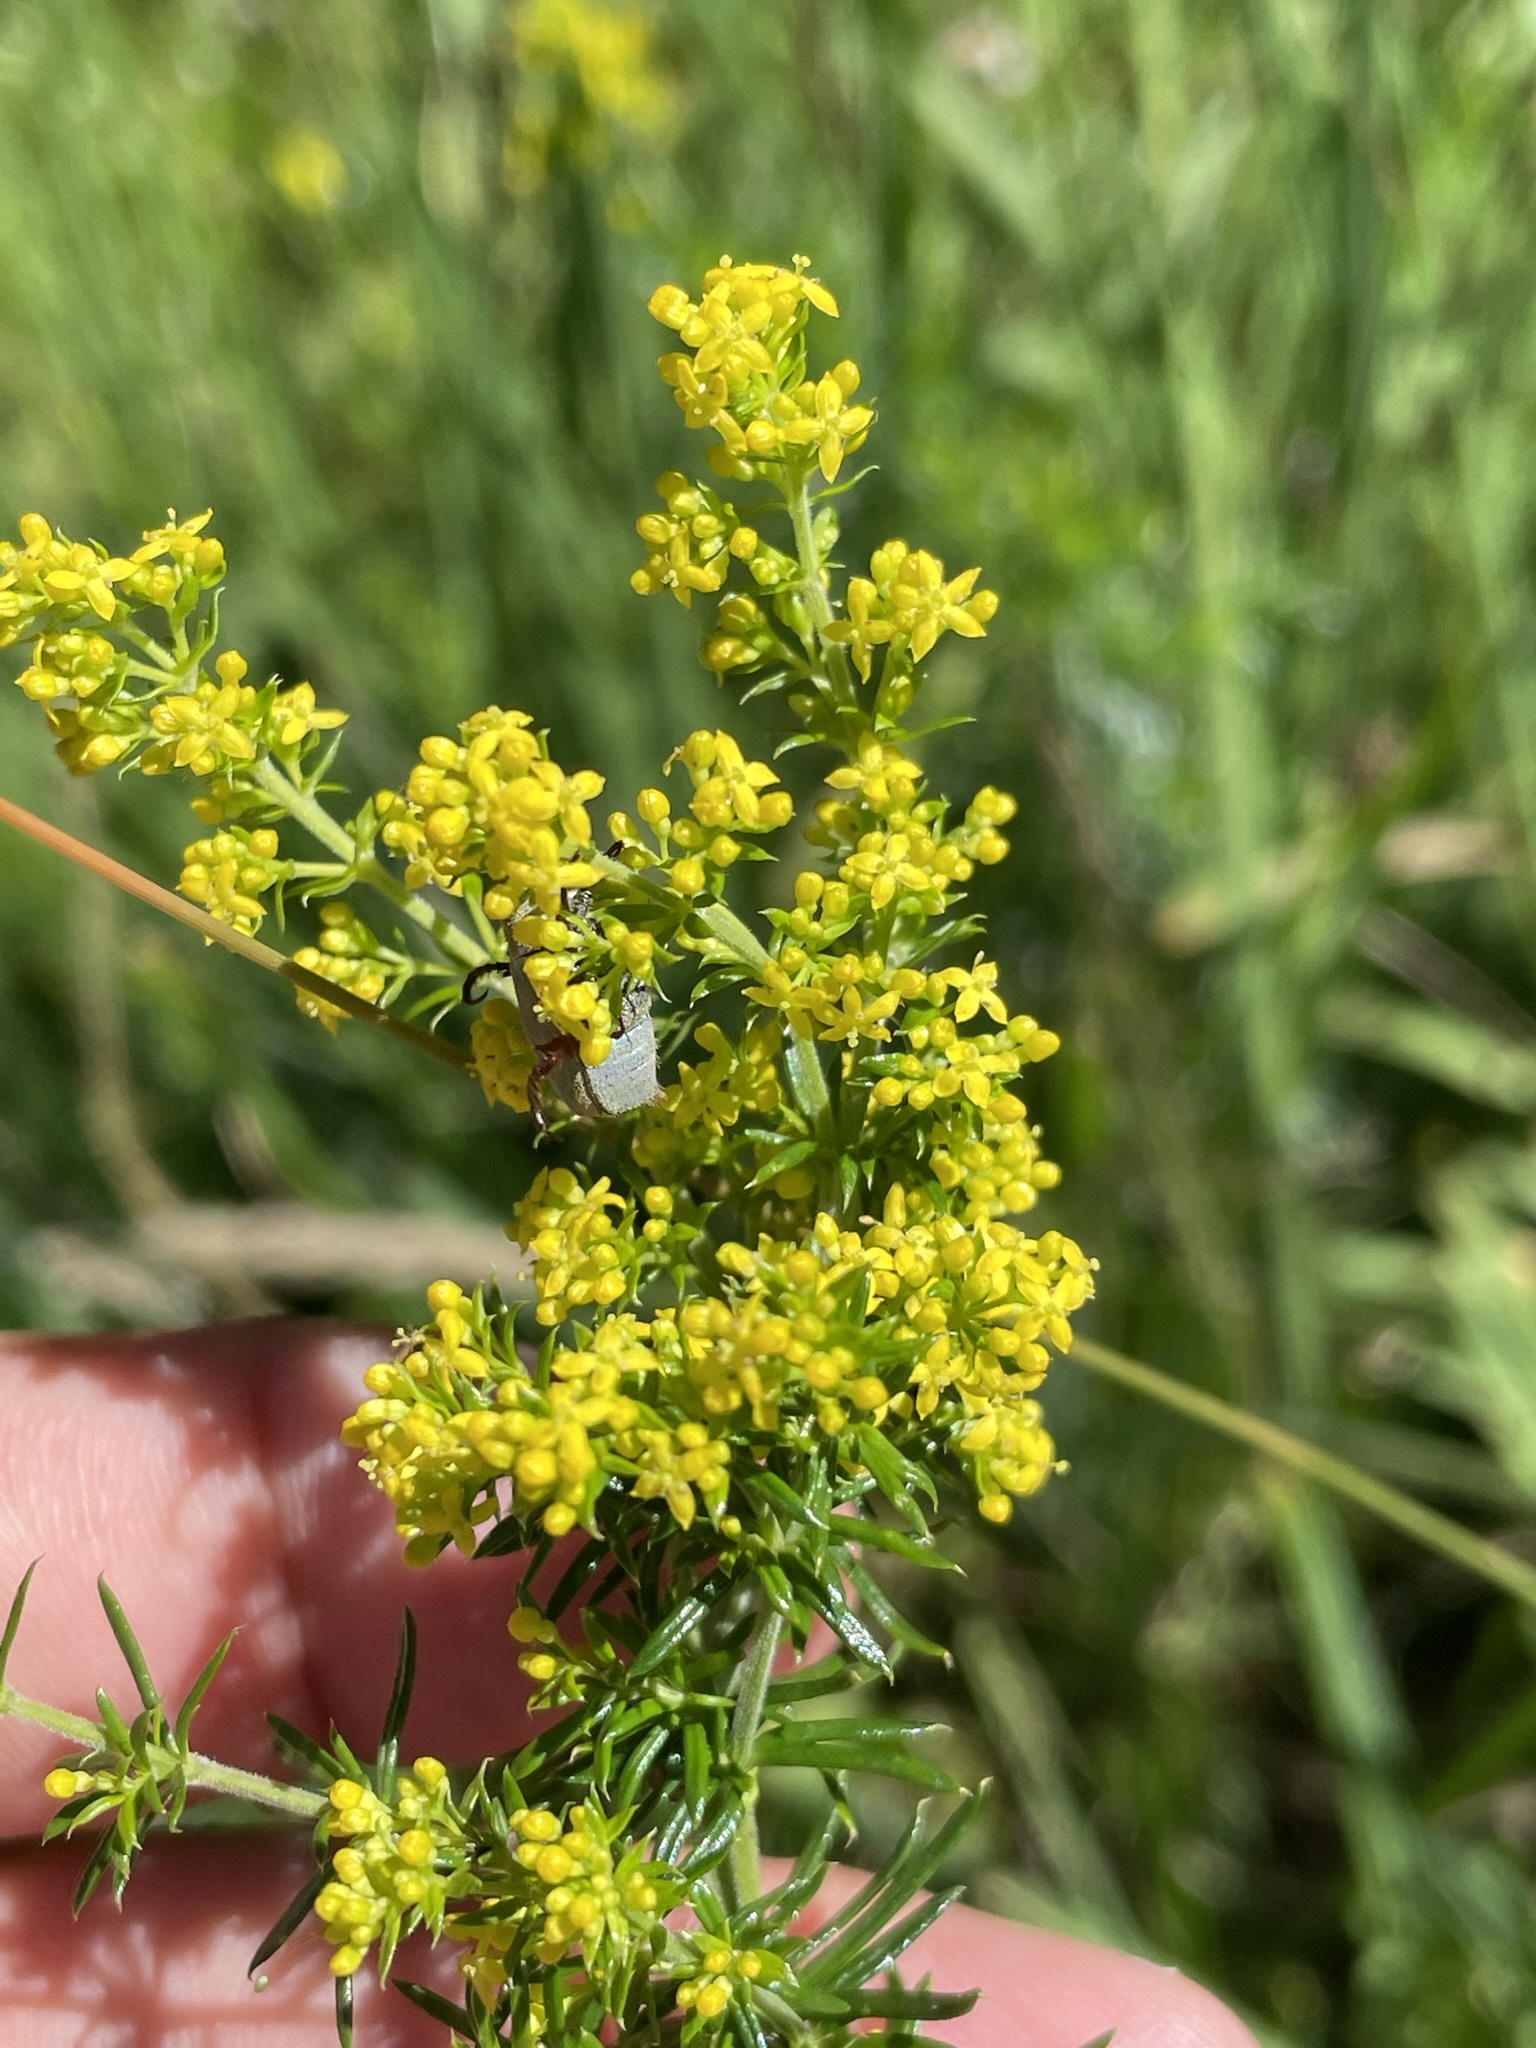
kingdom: Plantae
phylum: Tracheophyta
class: Magnoliopsida
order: Gentianales
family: Rubiaceae
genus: Galium
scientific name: Galium verum
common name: Lady's bedstraw
